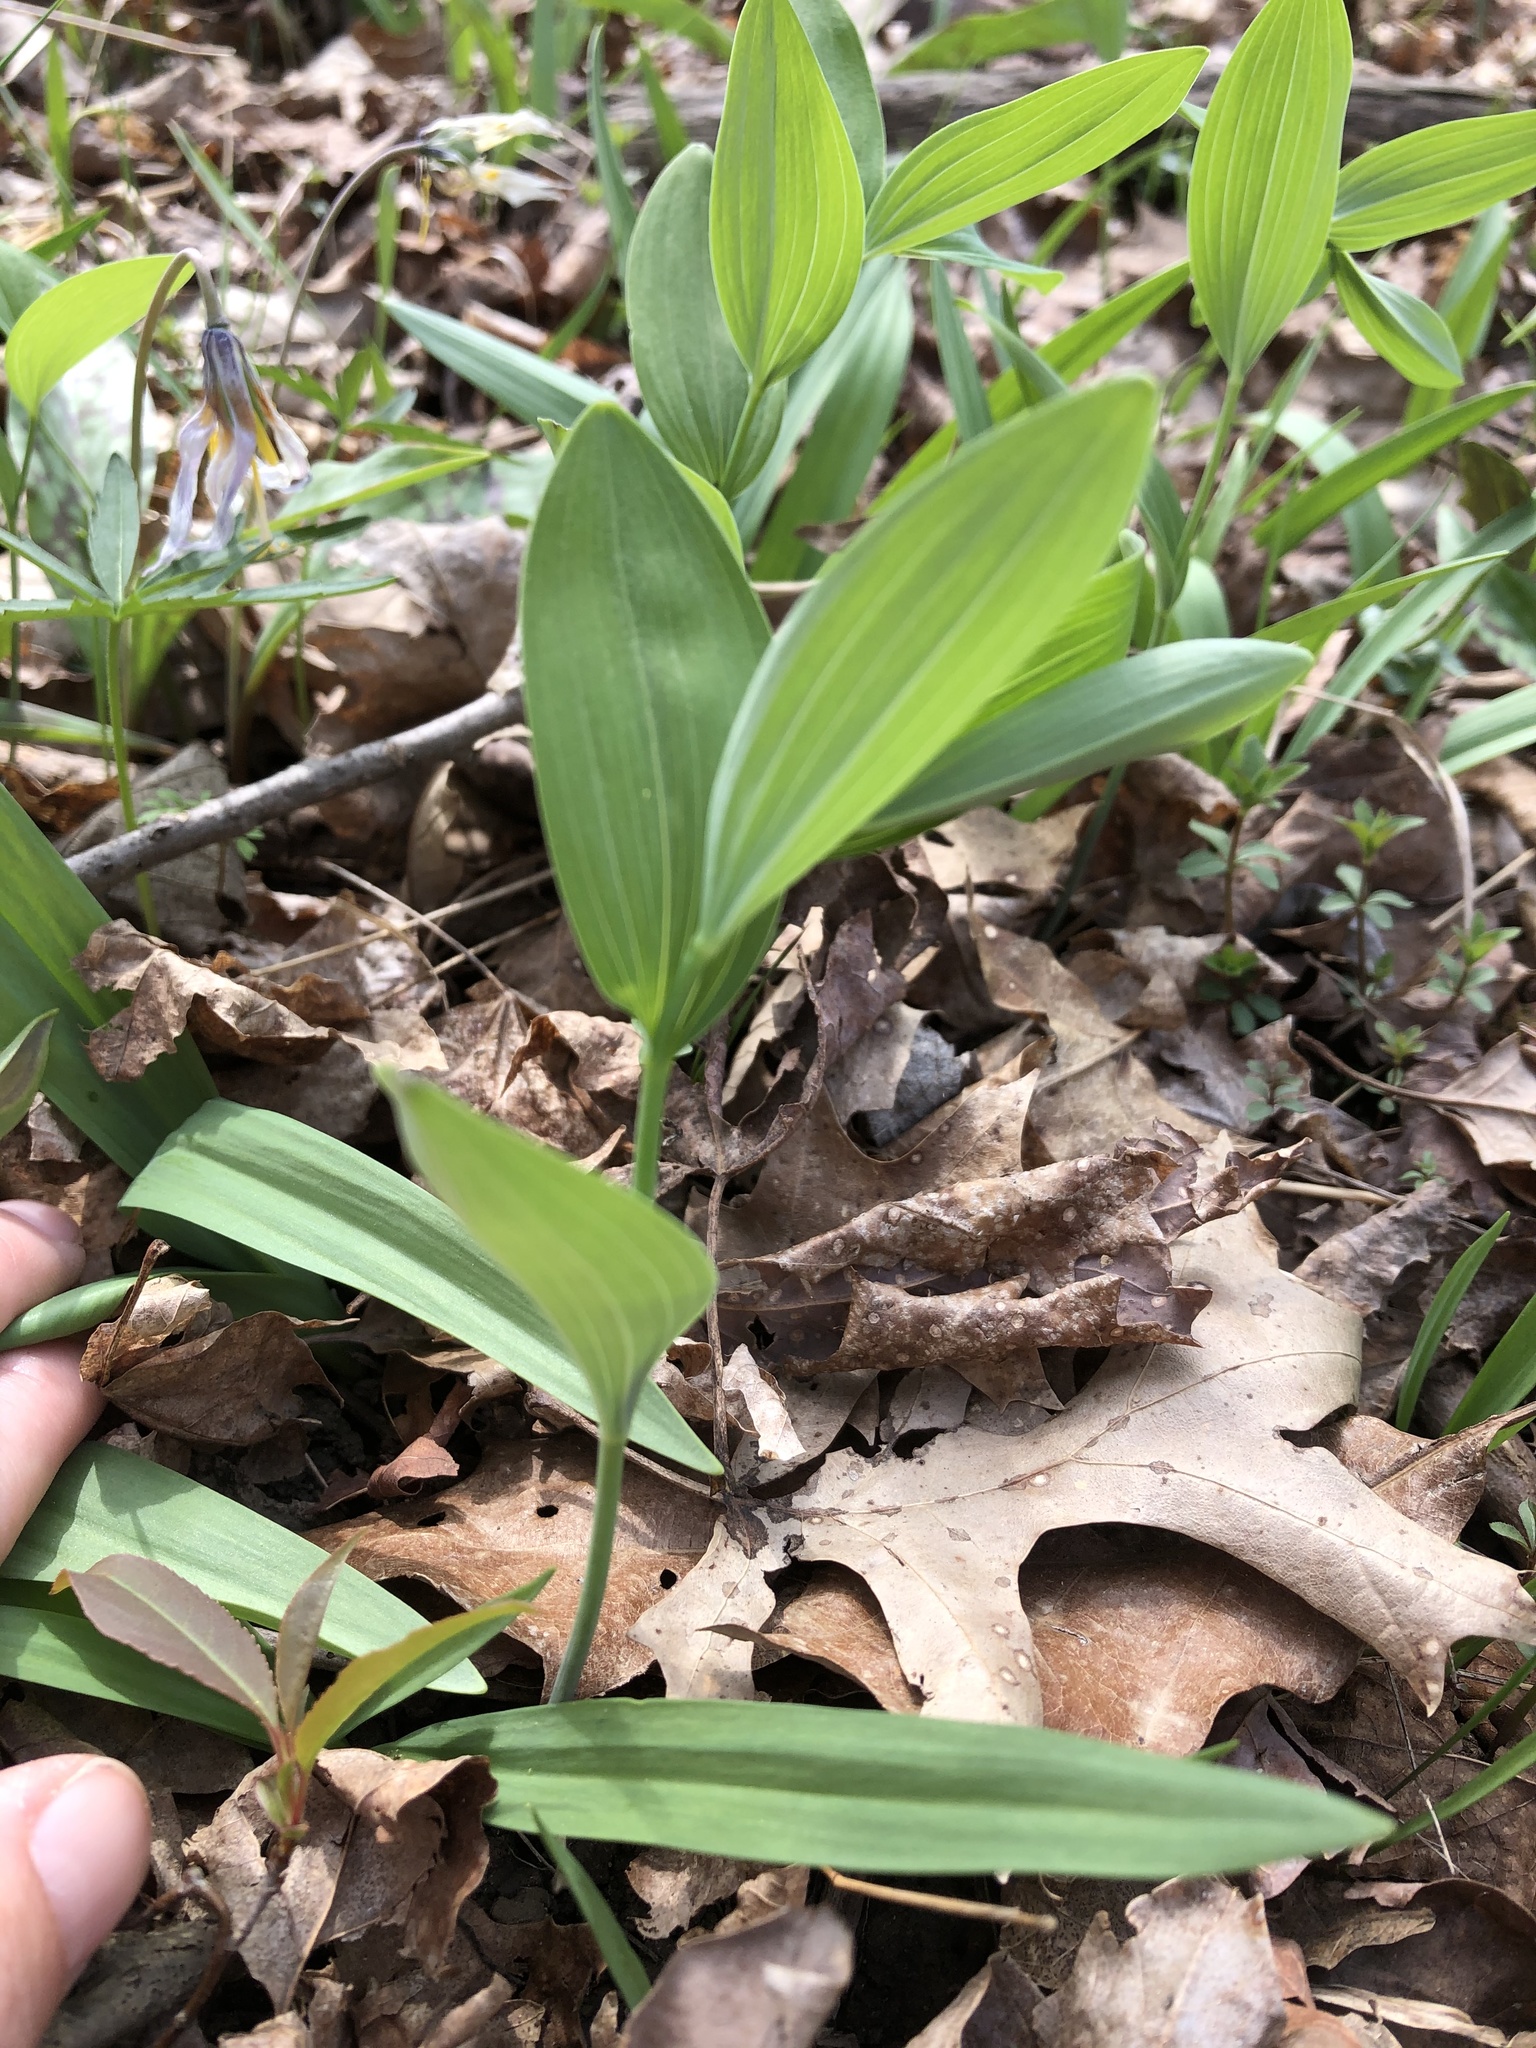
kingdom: Plantae
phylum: Tracheophyta
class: Liliopsida
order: Asparagales
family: Asparagaceae
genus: Polygonatum
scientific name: Polygonatum biflorum
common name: American solomon's-seal
